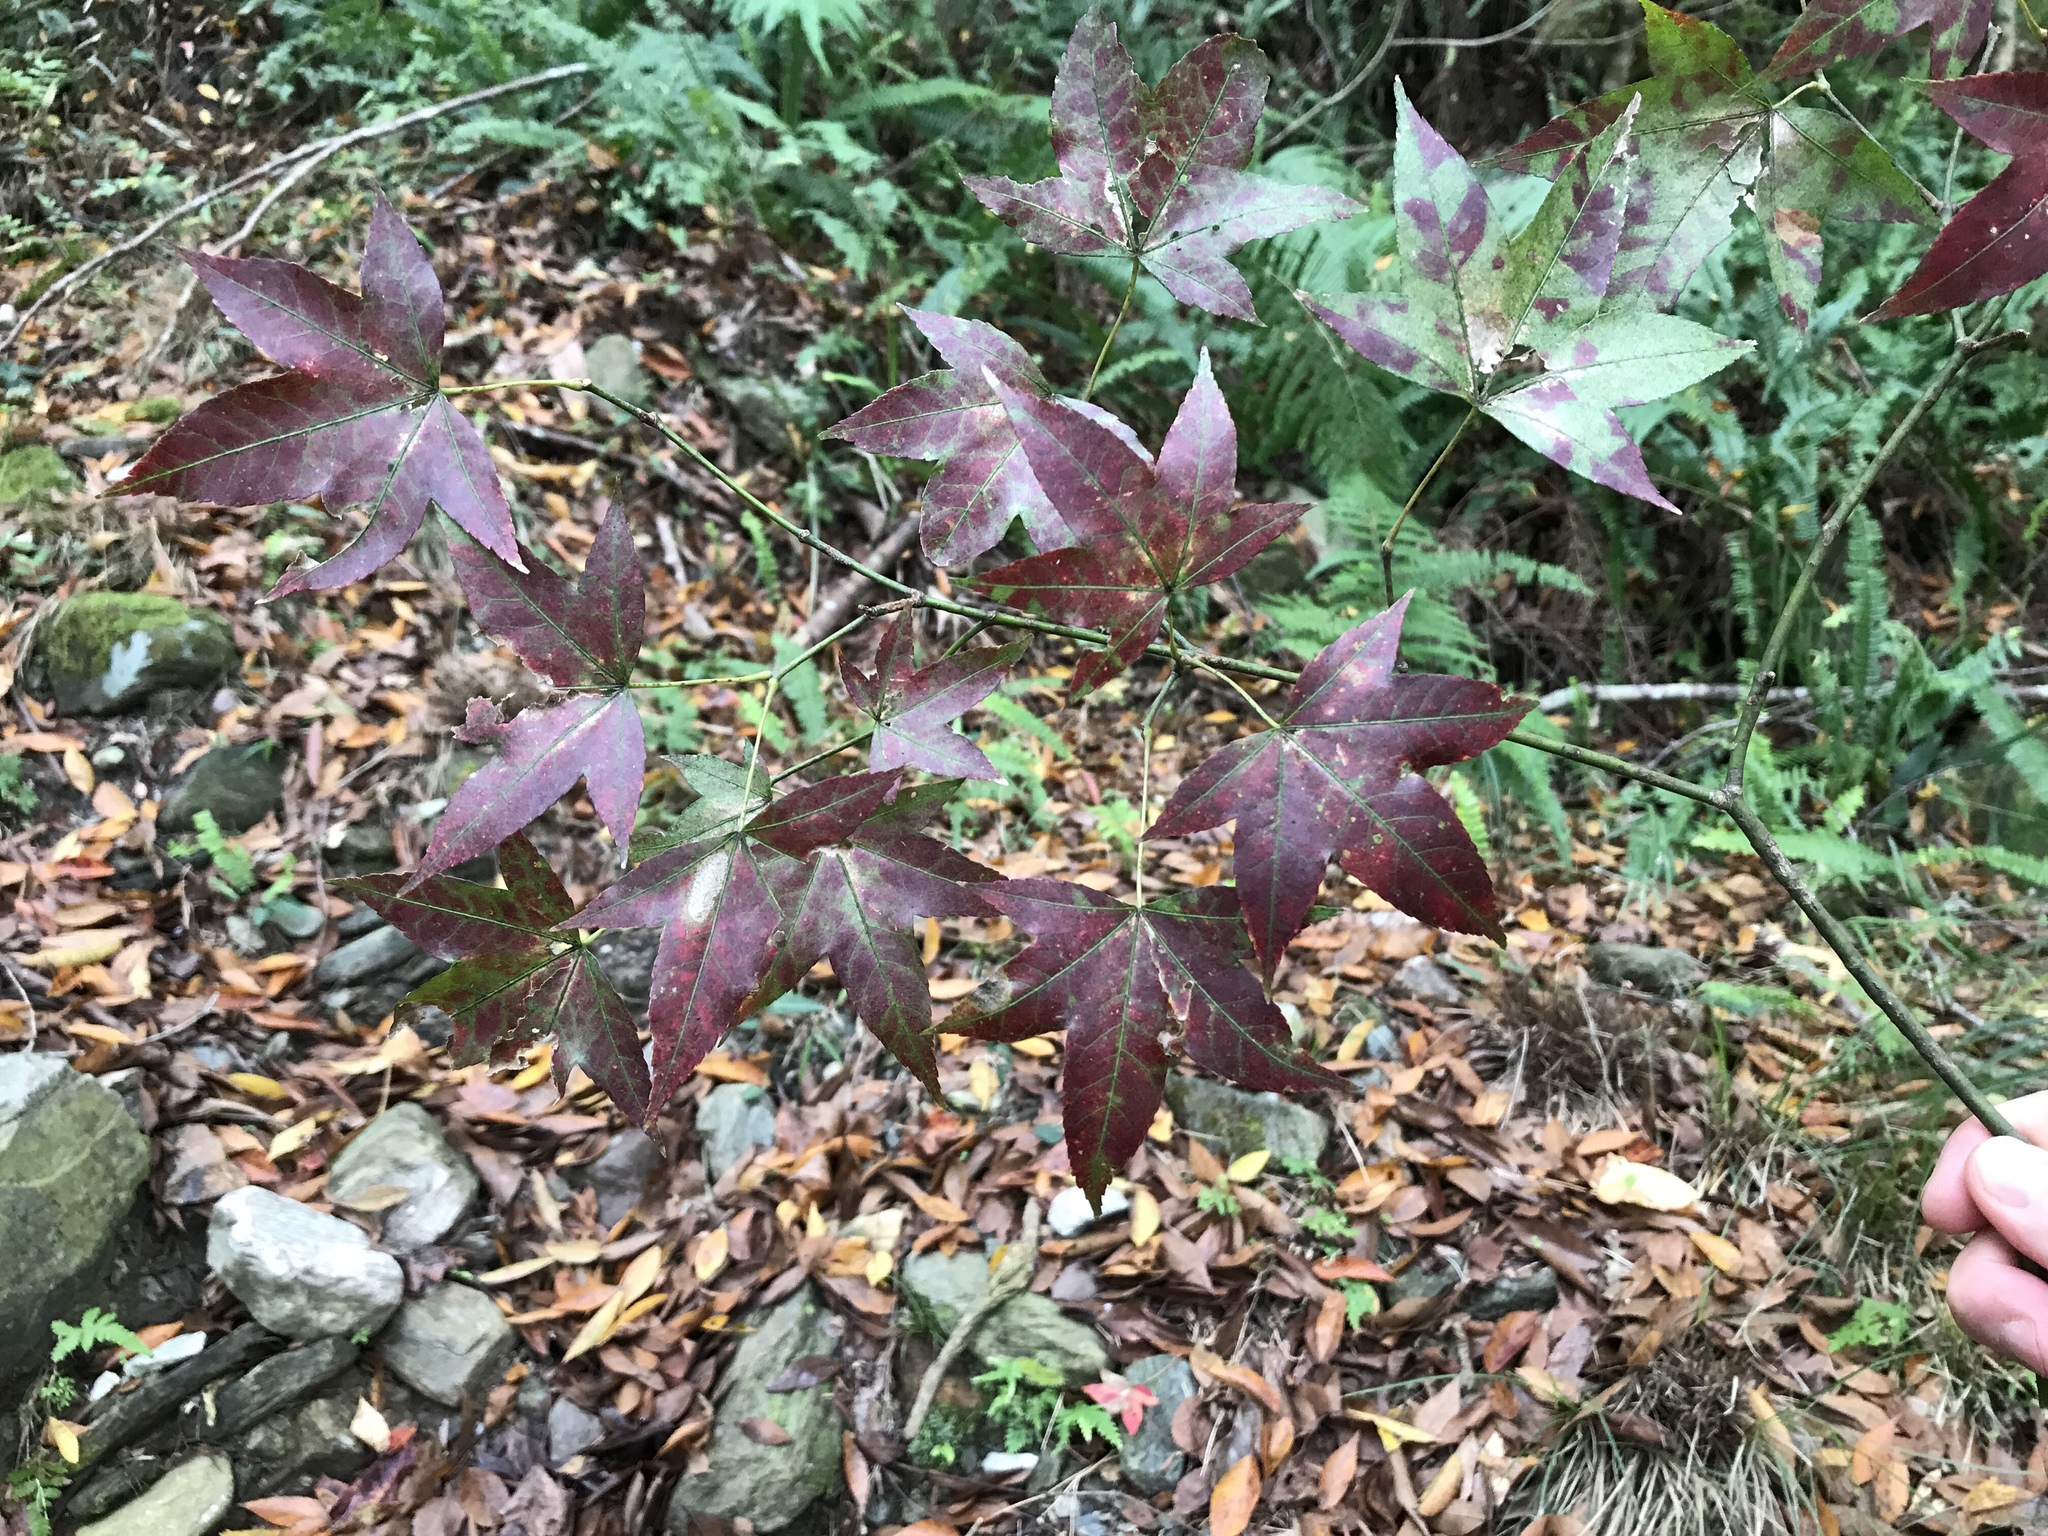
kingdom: Plantae
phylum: Tracheophyta
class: Magnoliopsida
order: Sapindales
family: Sapindaceae
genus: Acer
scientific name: Acer serrulatum
